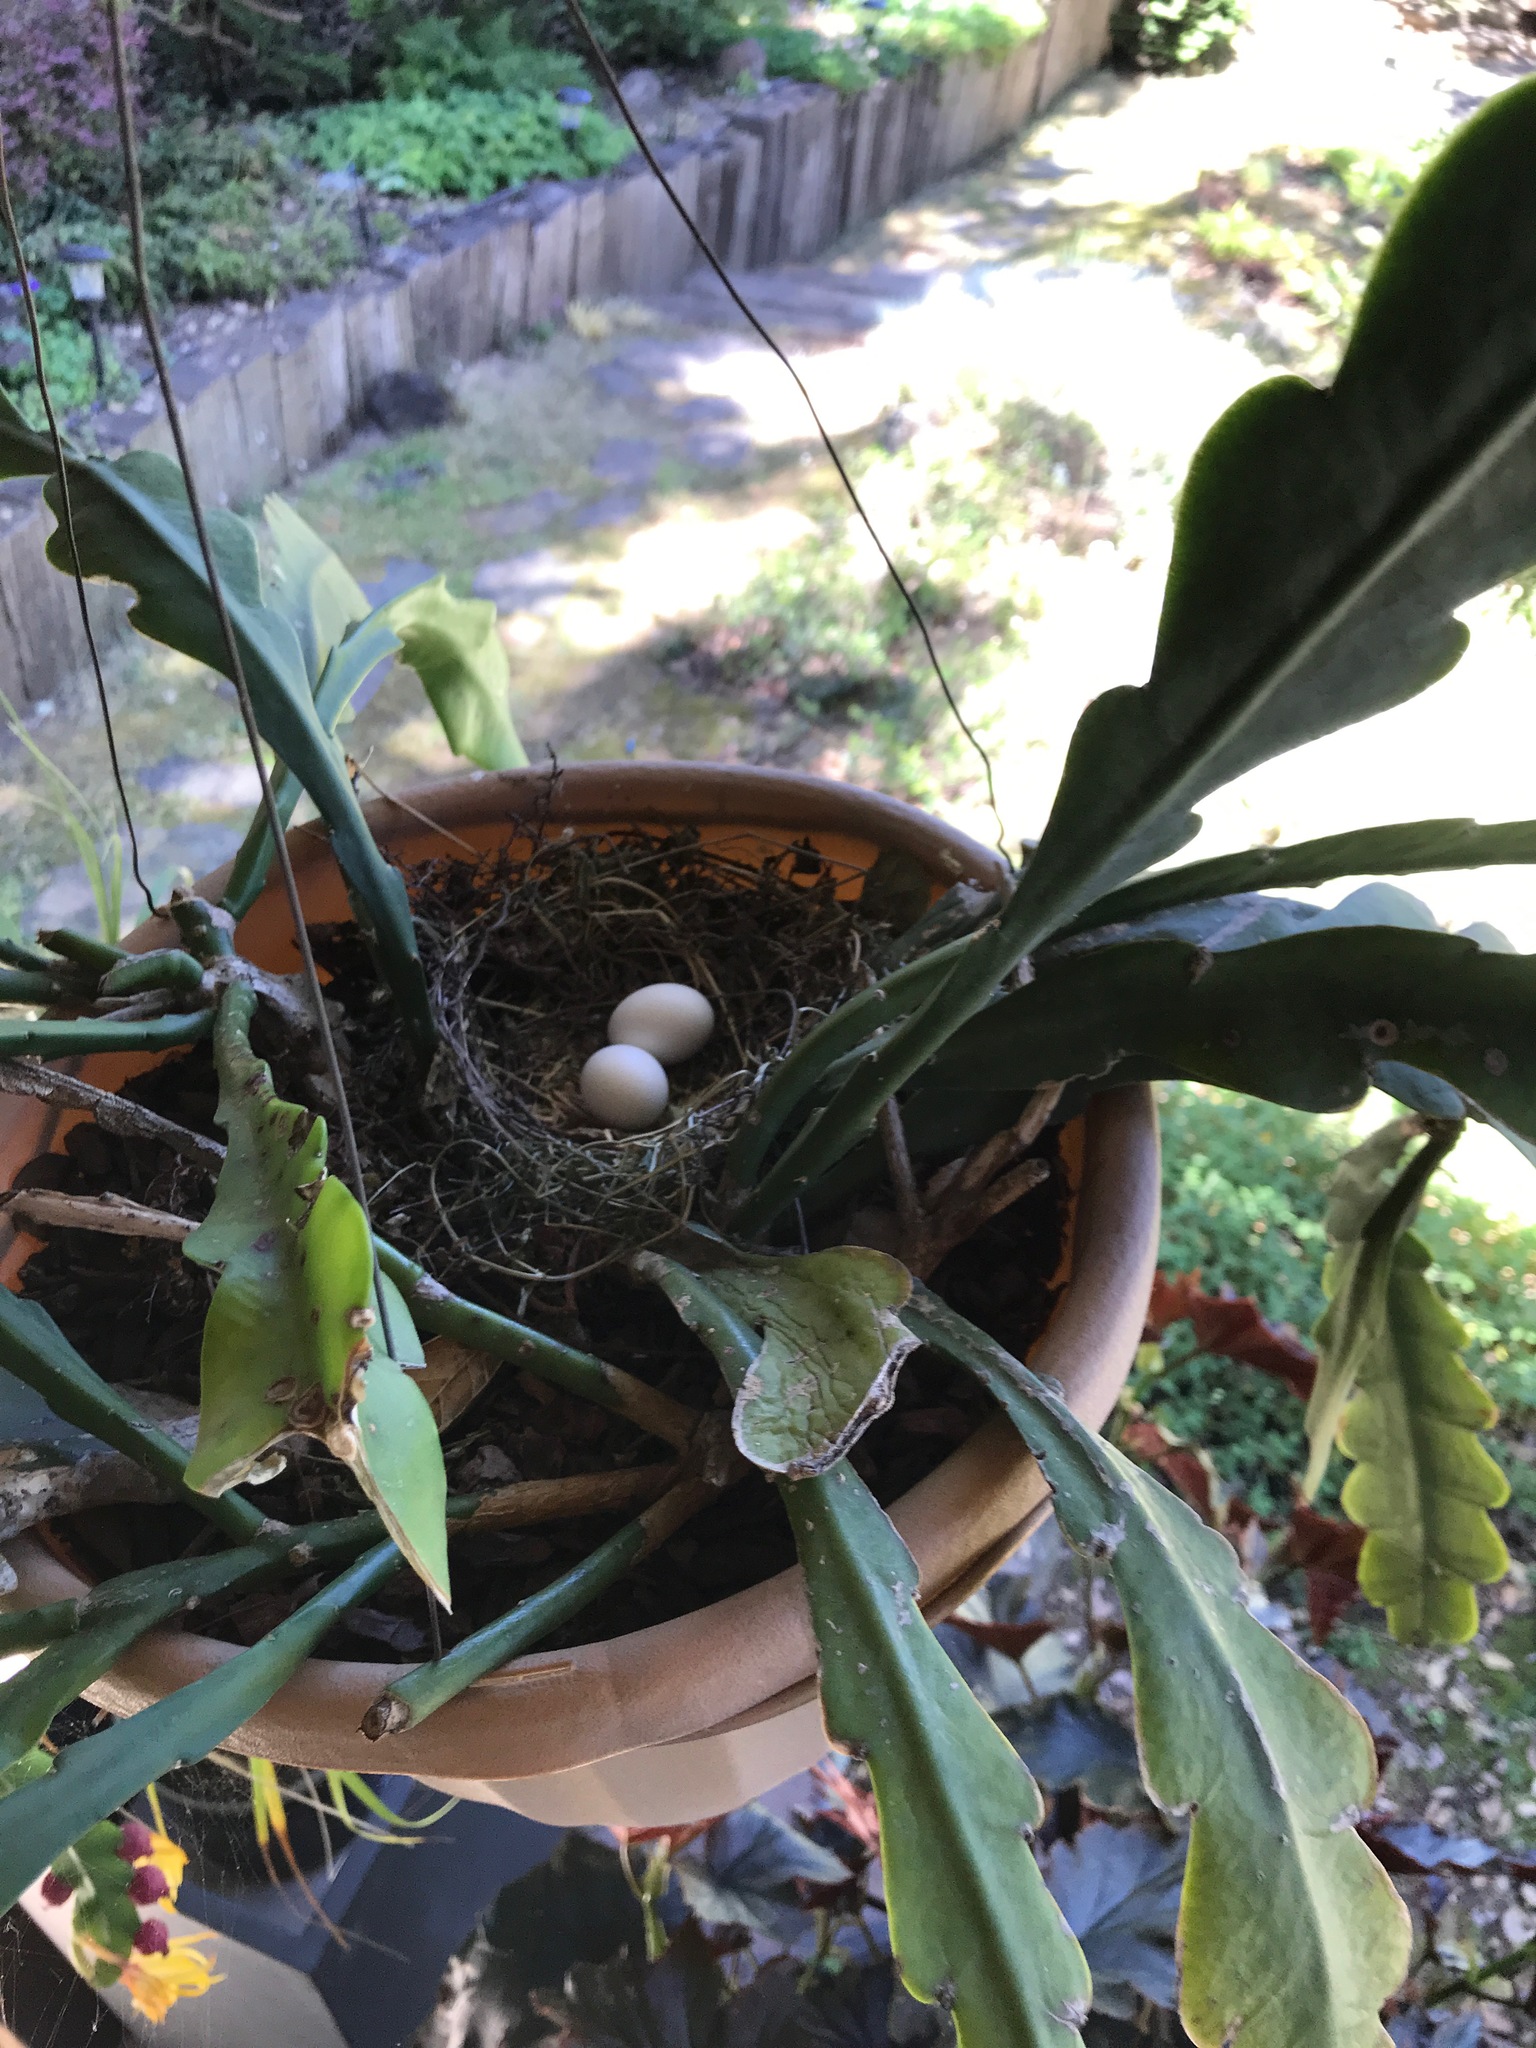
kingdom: Animalia
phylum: Chordata
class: Aves
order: Columbiformes
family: Columbidae
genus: Zenaida
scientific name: Zenaida macroura
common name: Mourning dove
